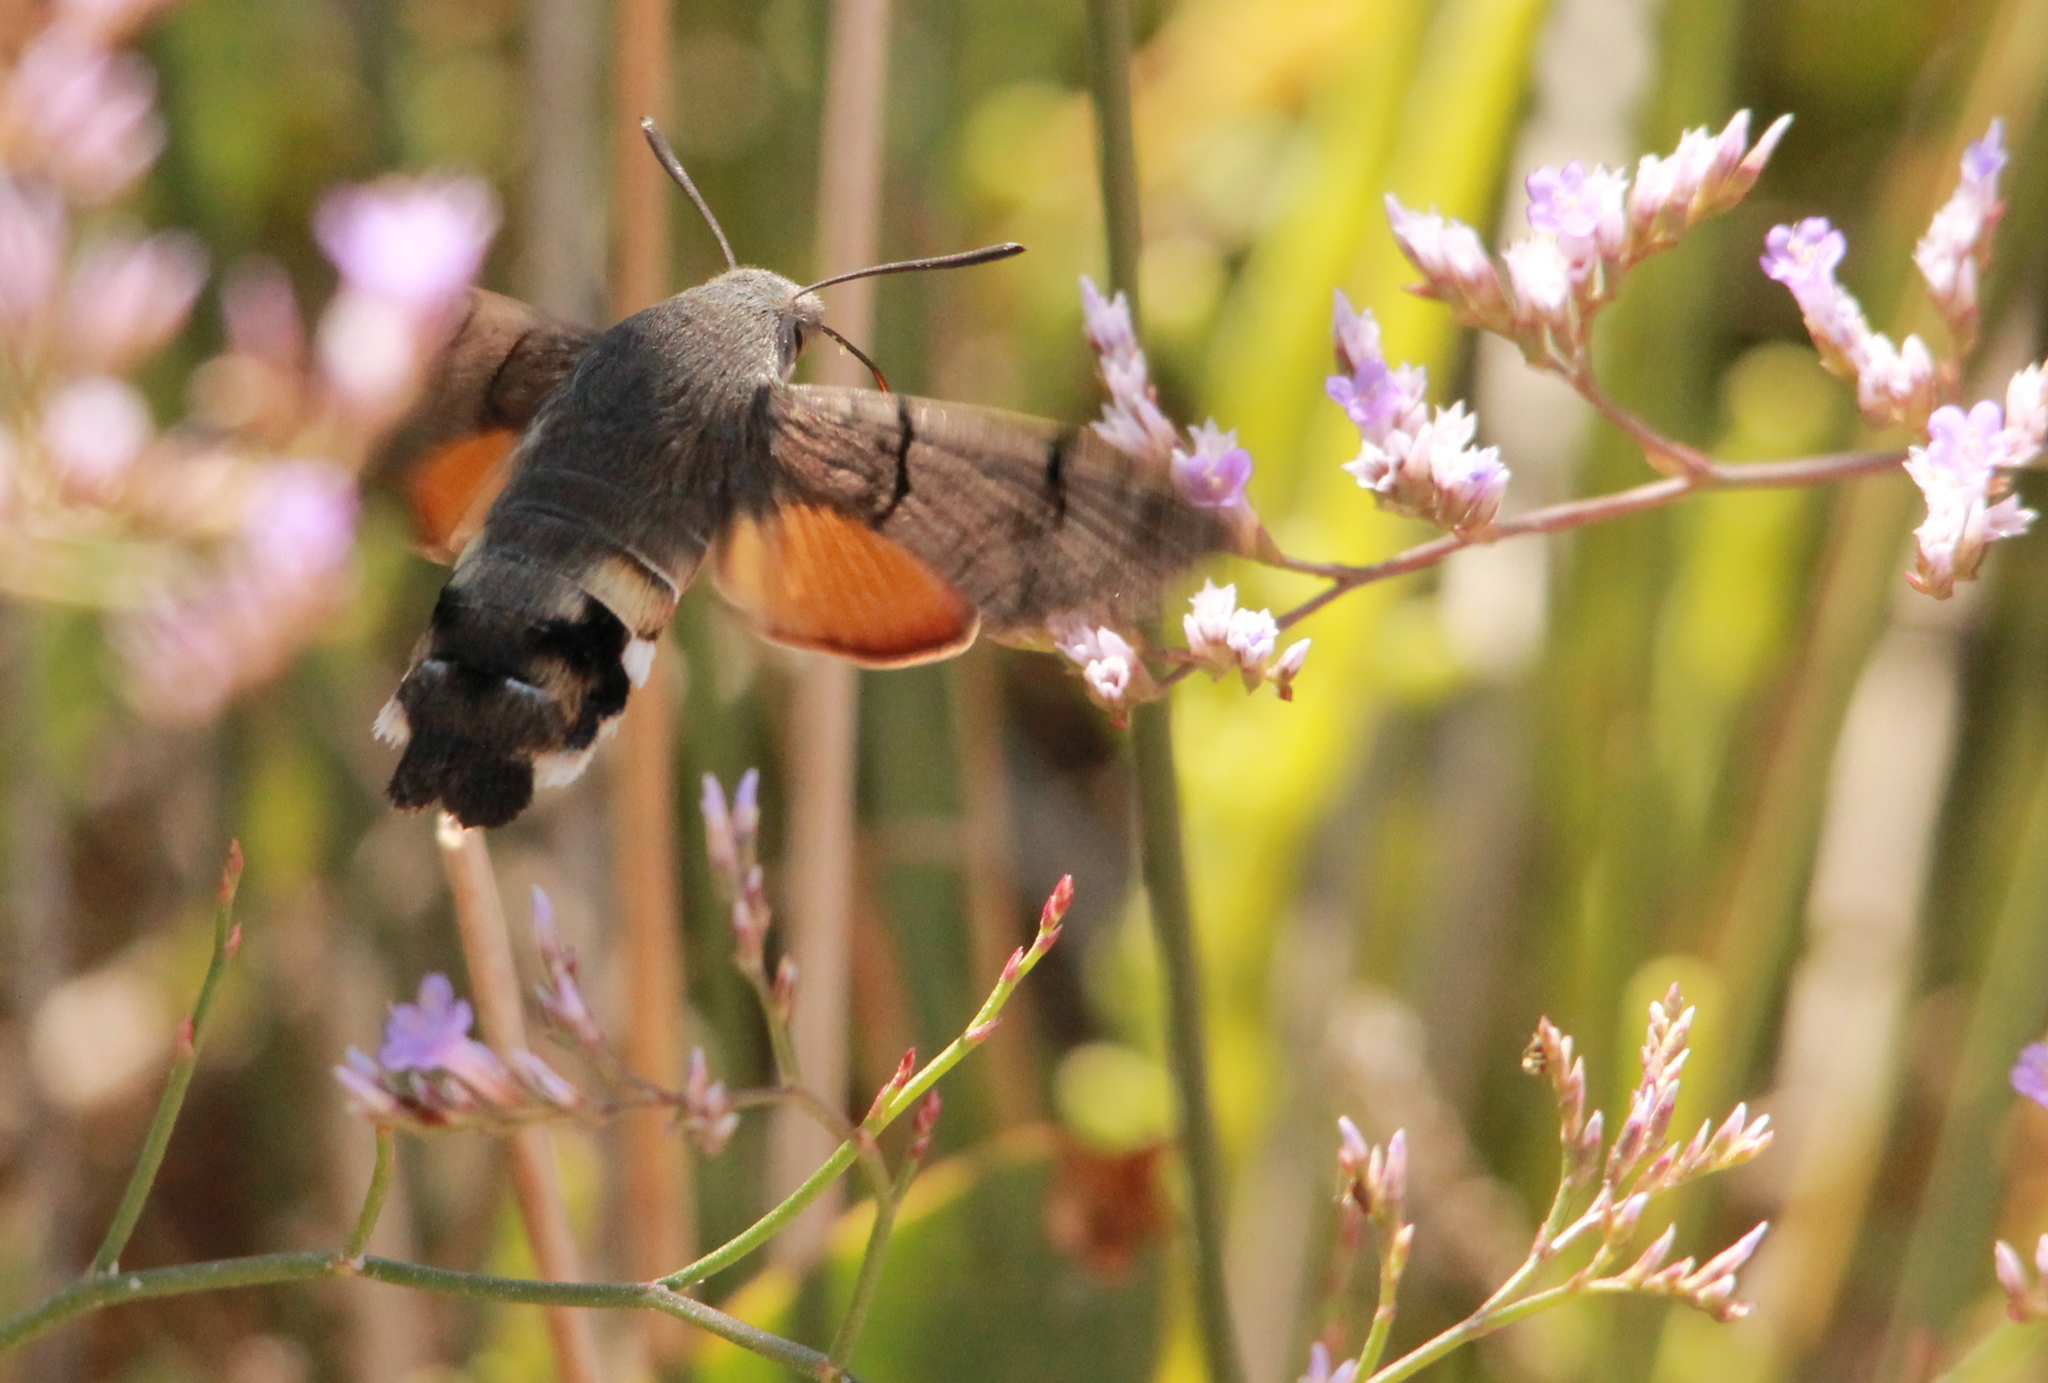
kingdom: Animalia
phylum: Arthropoda
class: Insecta
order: Lepidoptera
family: Sphingidae
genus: Macroglossum
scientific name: Macroglossum stellatarum
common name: Humming-bird hawk-moth
